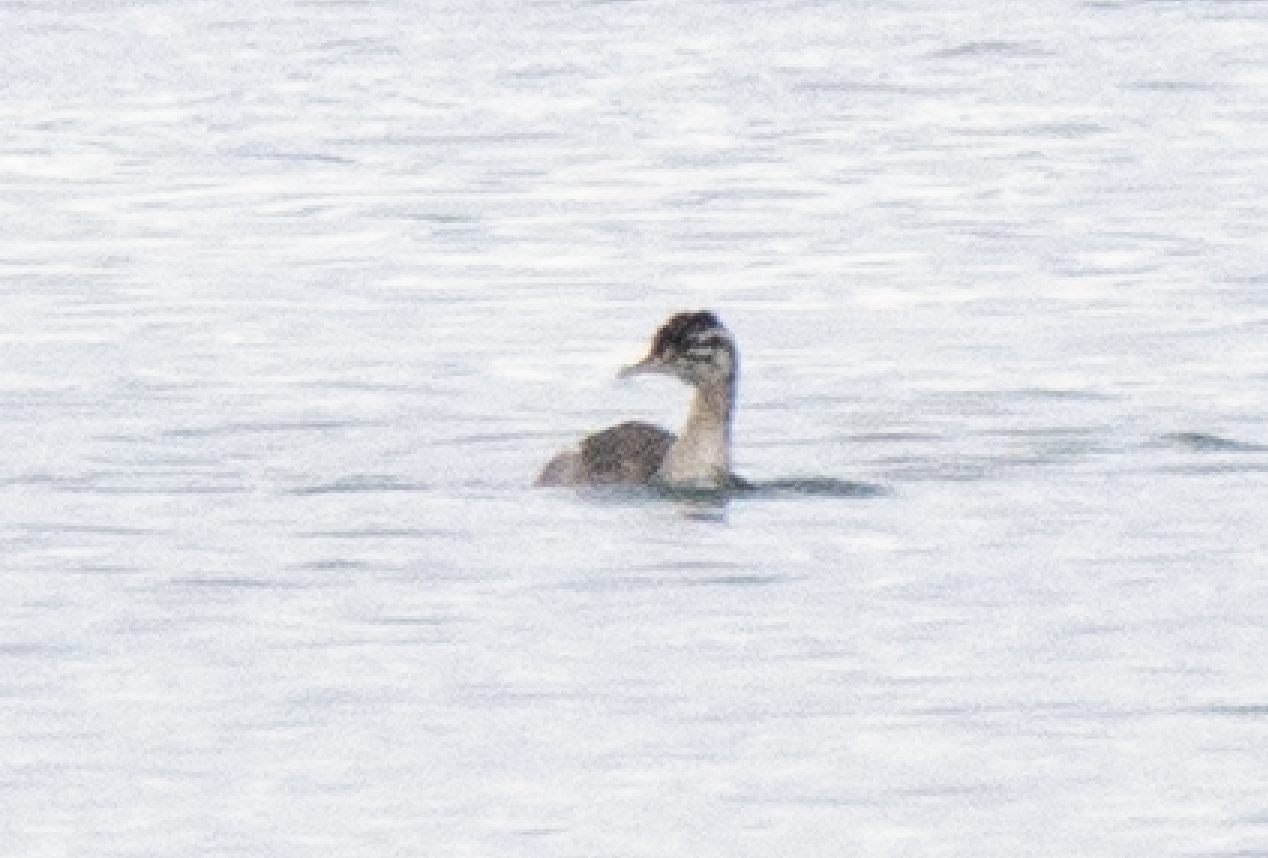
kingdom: Animalia
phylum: Chordata
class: Aves
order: Podicipediformes
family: Podicipedidae
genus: Podiceps
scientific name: Podiceps cristatus
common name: Great crested grebe
